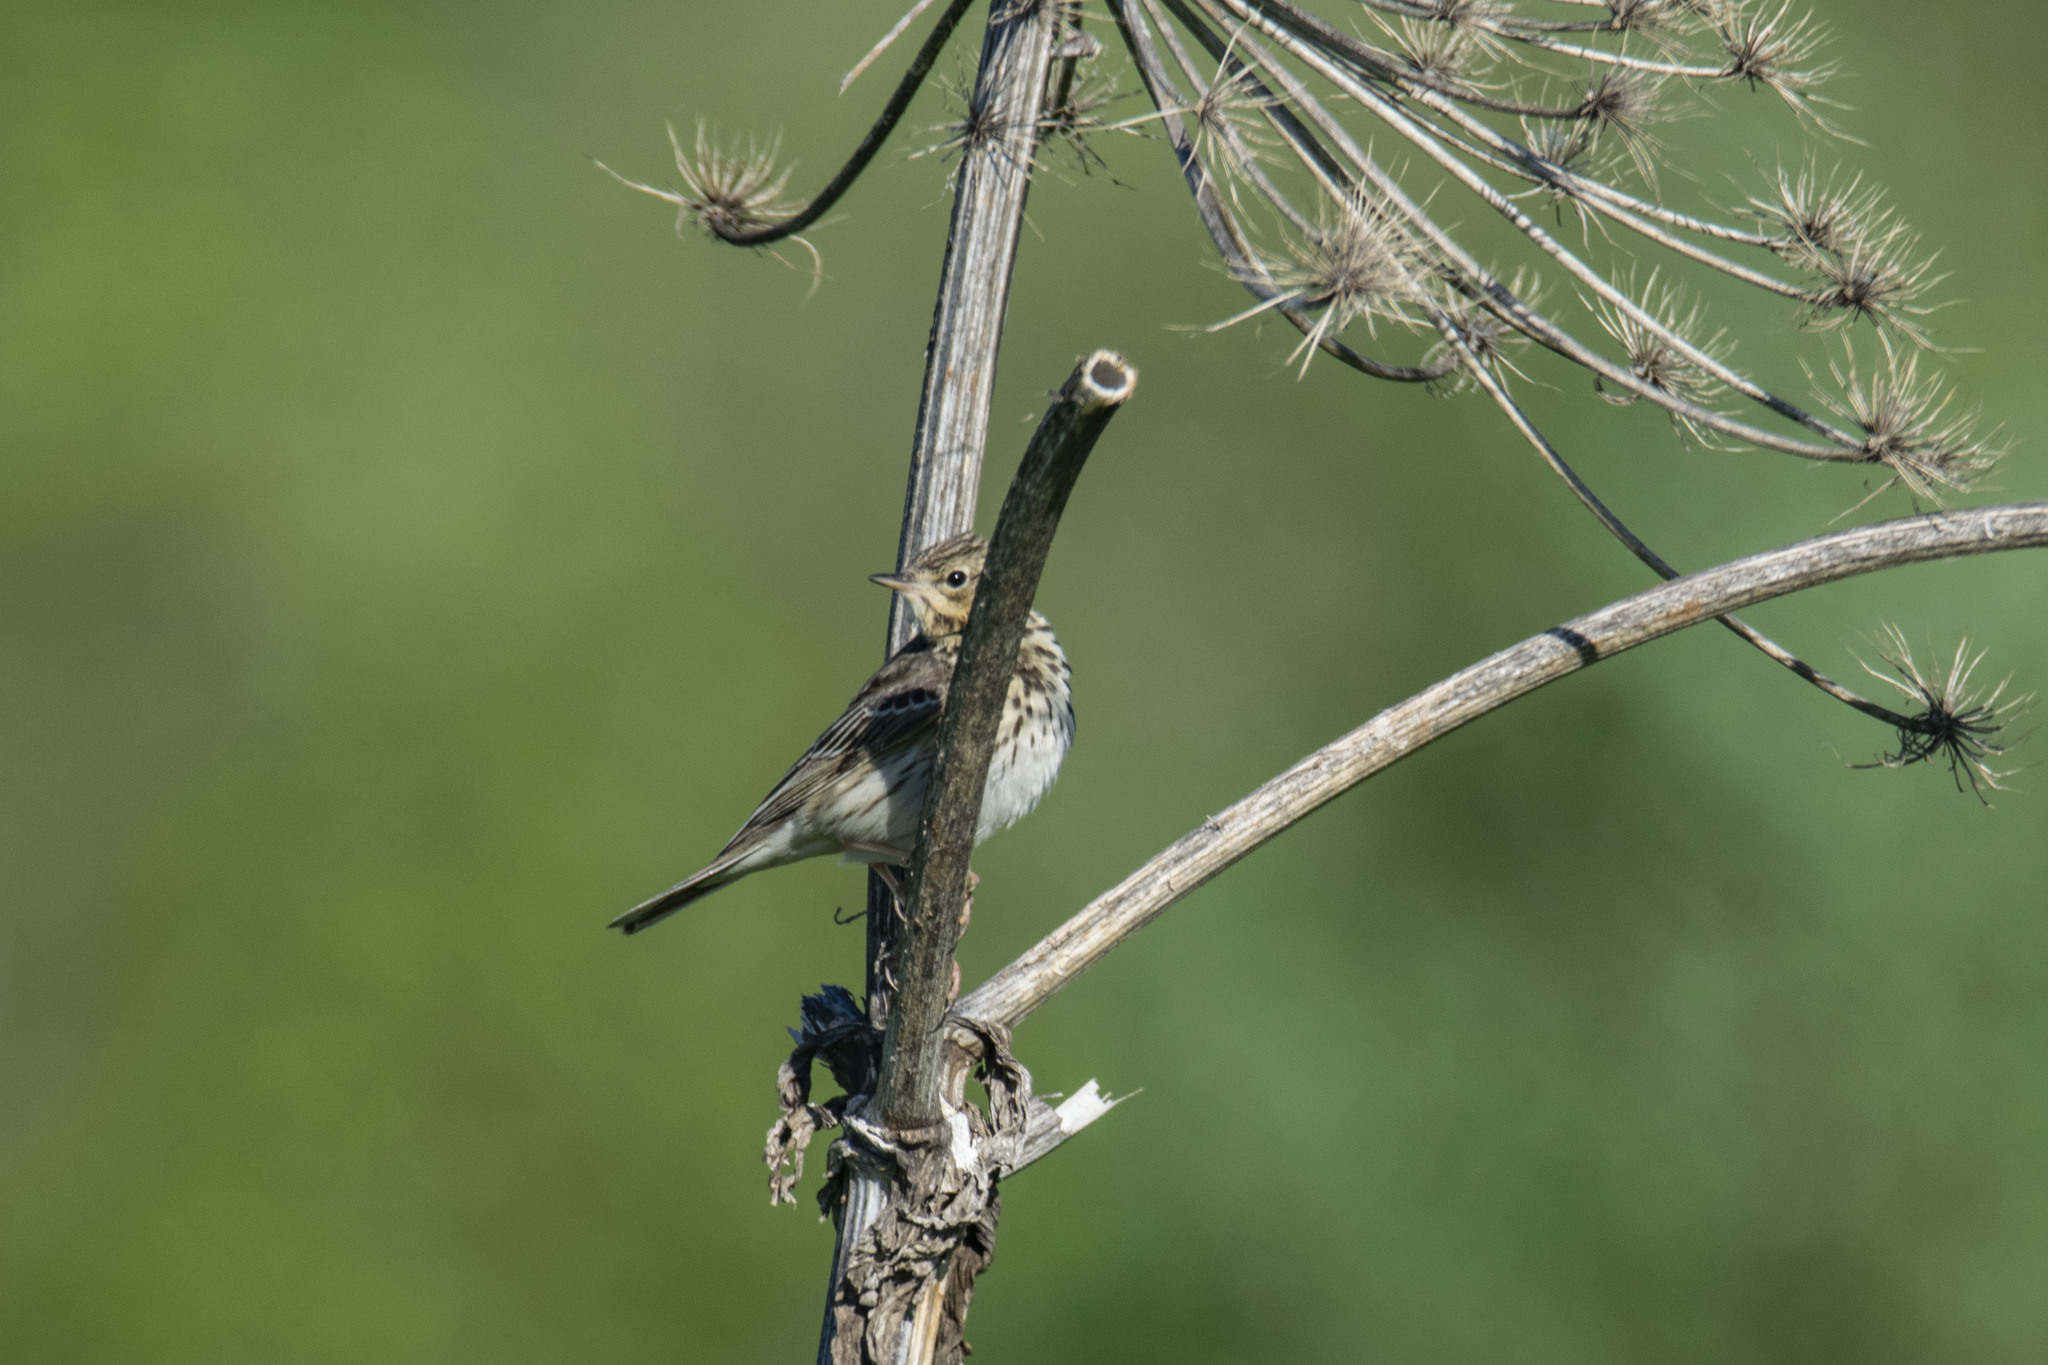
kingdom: Animalia
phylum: Chordata
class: Aves
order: Passeriformes
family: Motacillidae
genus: Anthus
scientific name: Anthus trivialis
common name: Tree pipit
